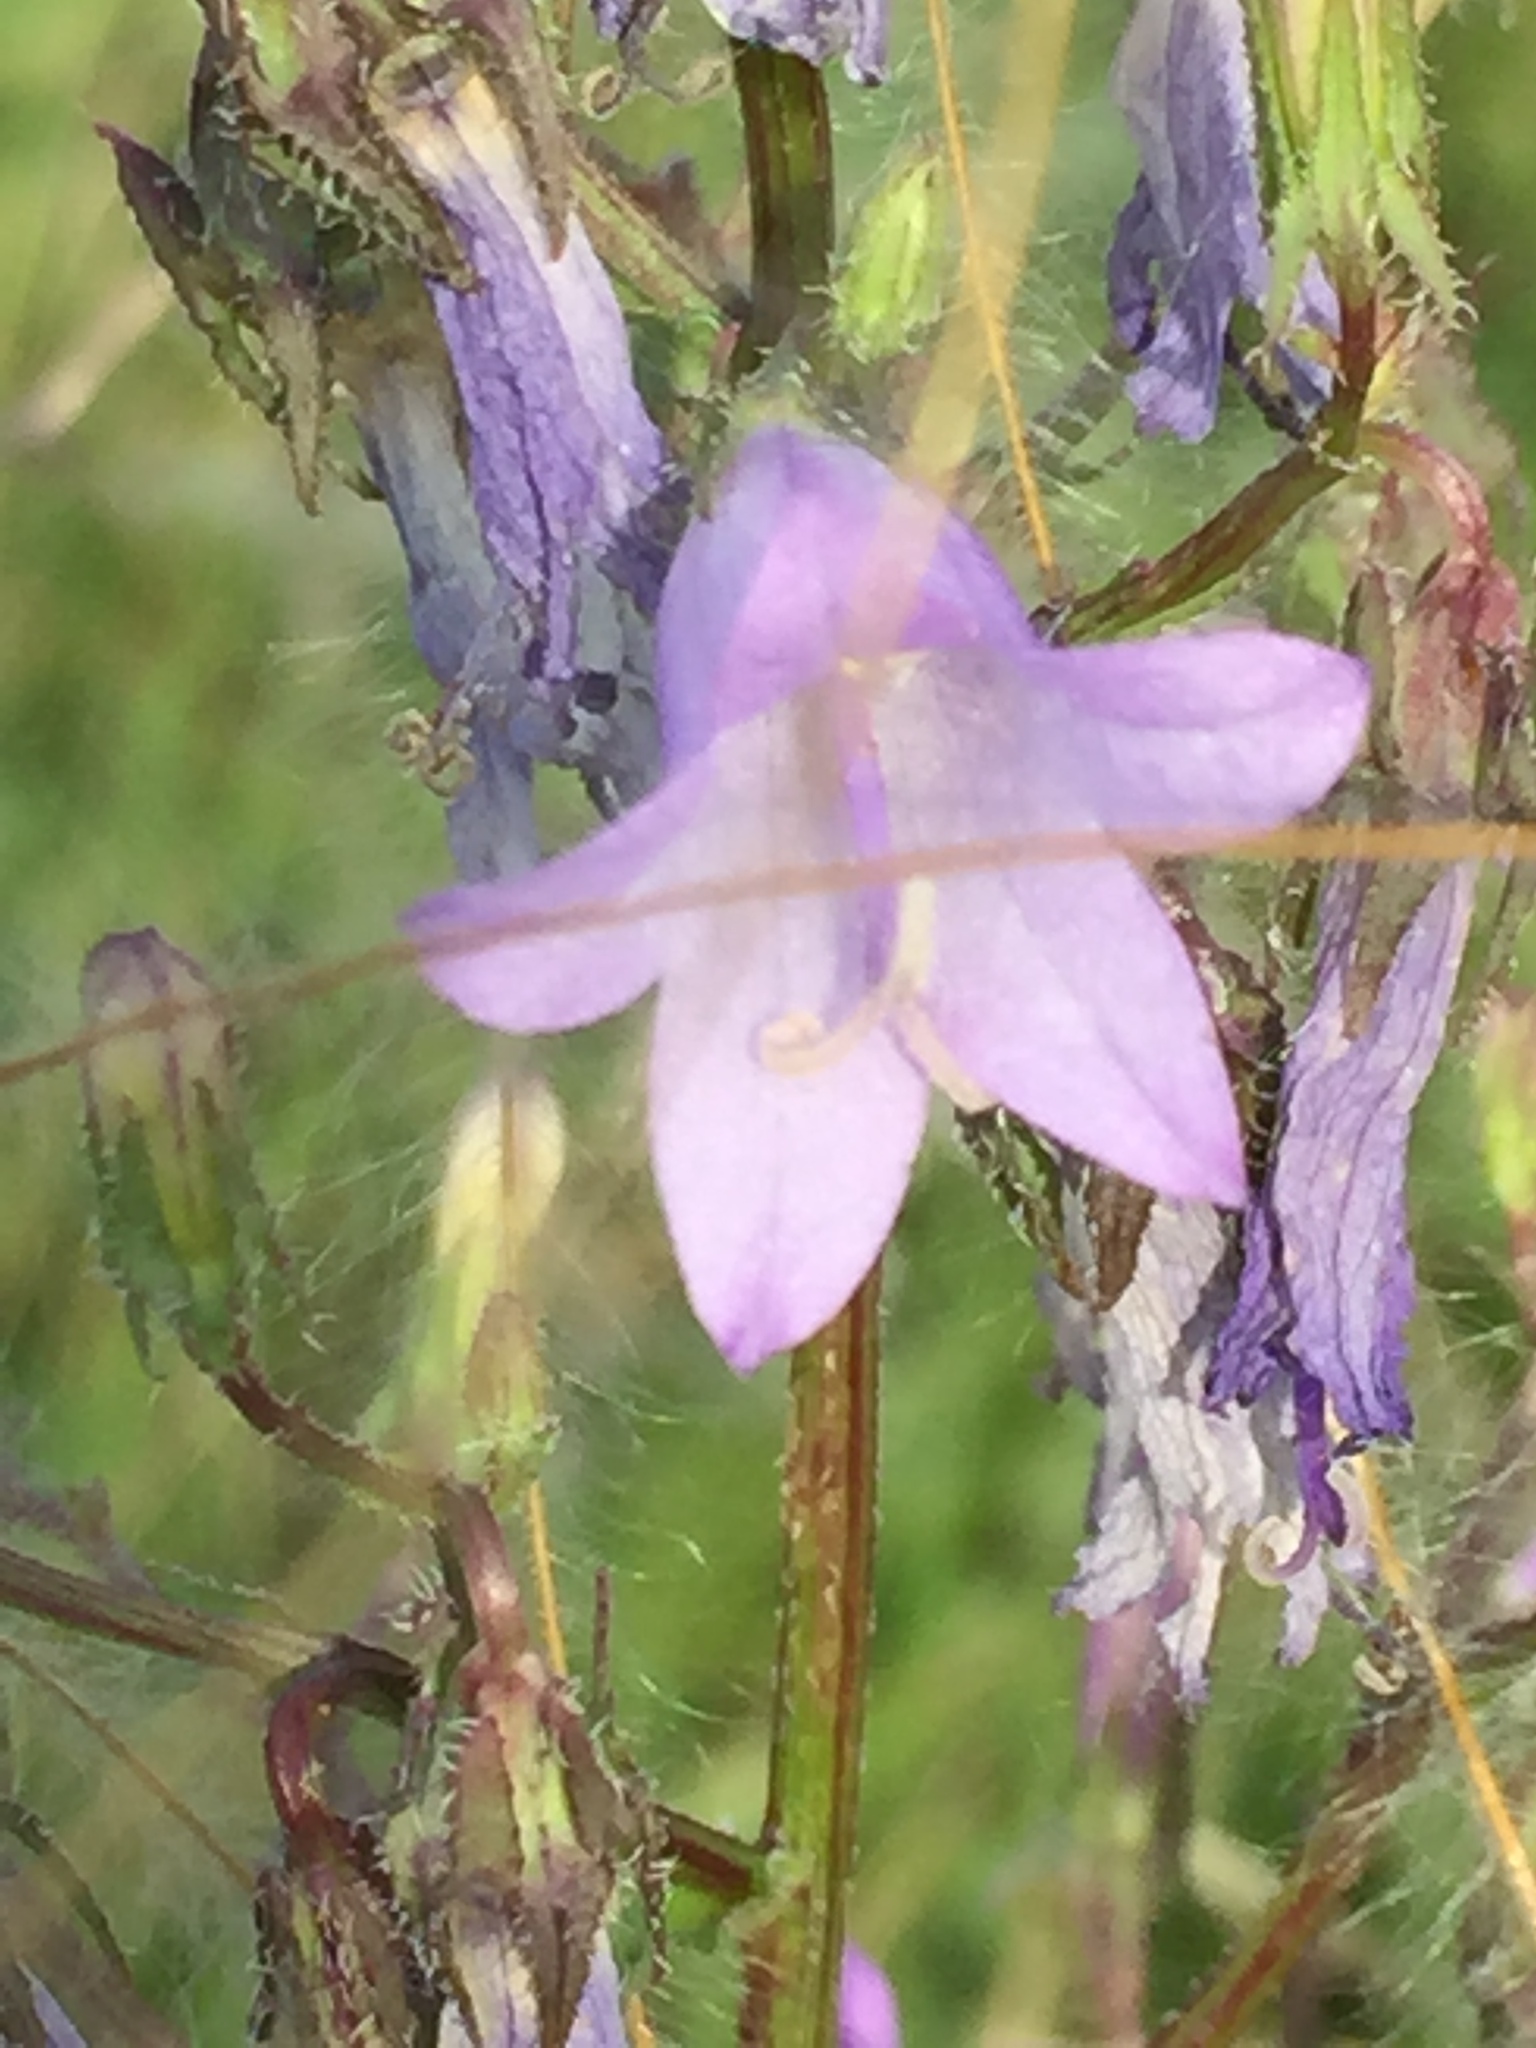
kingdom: Plantae
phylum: Tracheophyta
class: Magnoliopsida
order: Asterales
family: Campanulaceae
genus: Campanula
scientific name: Campanula sibirica
